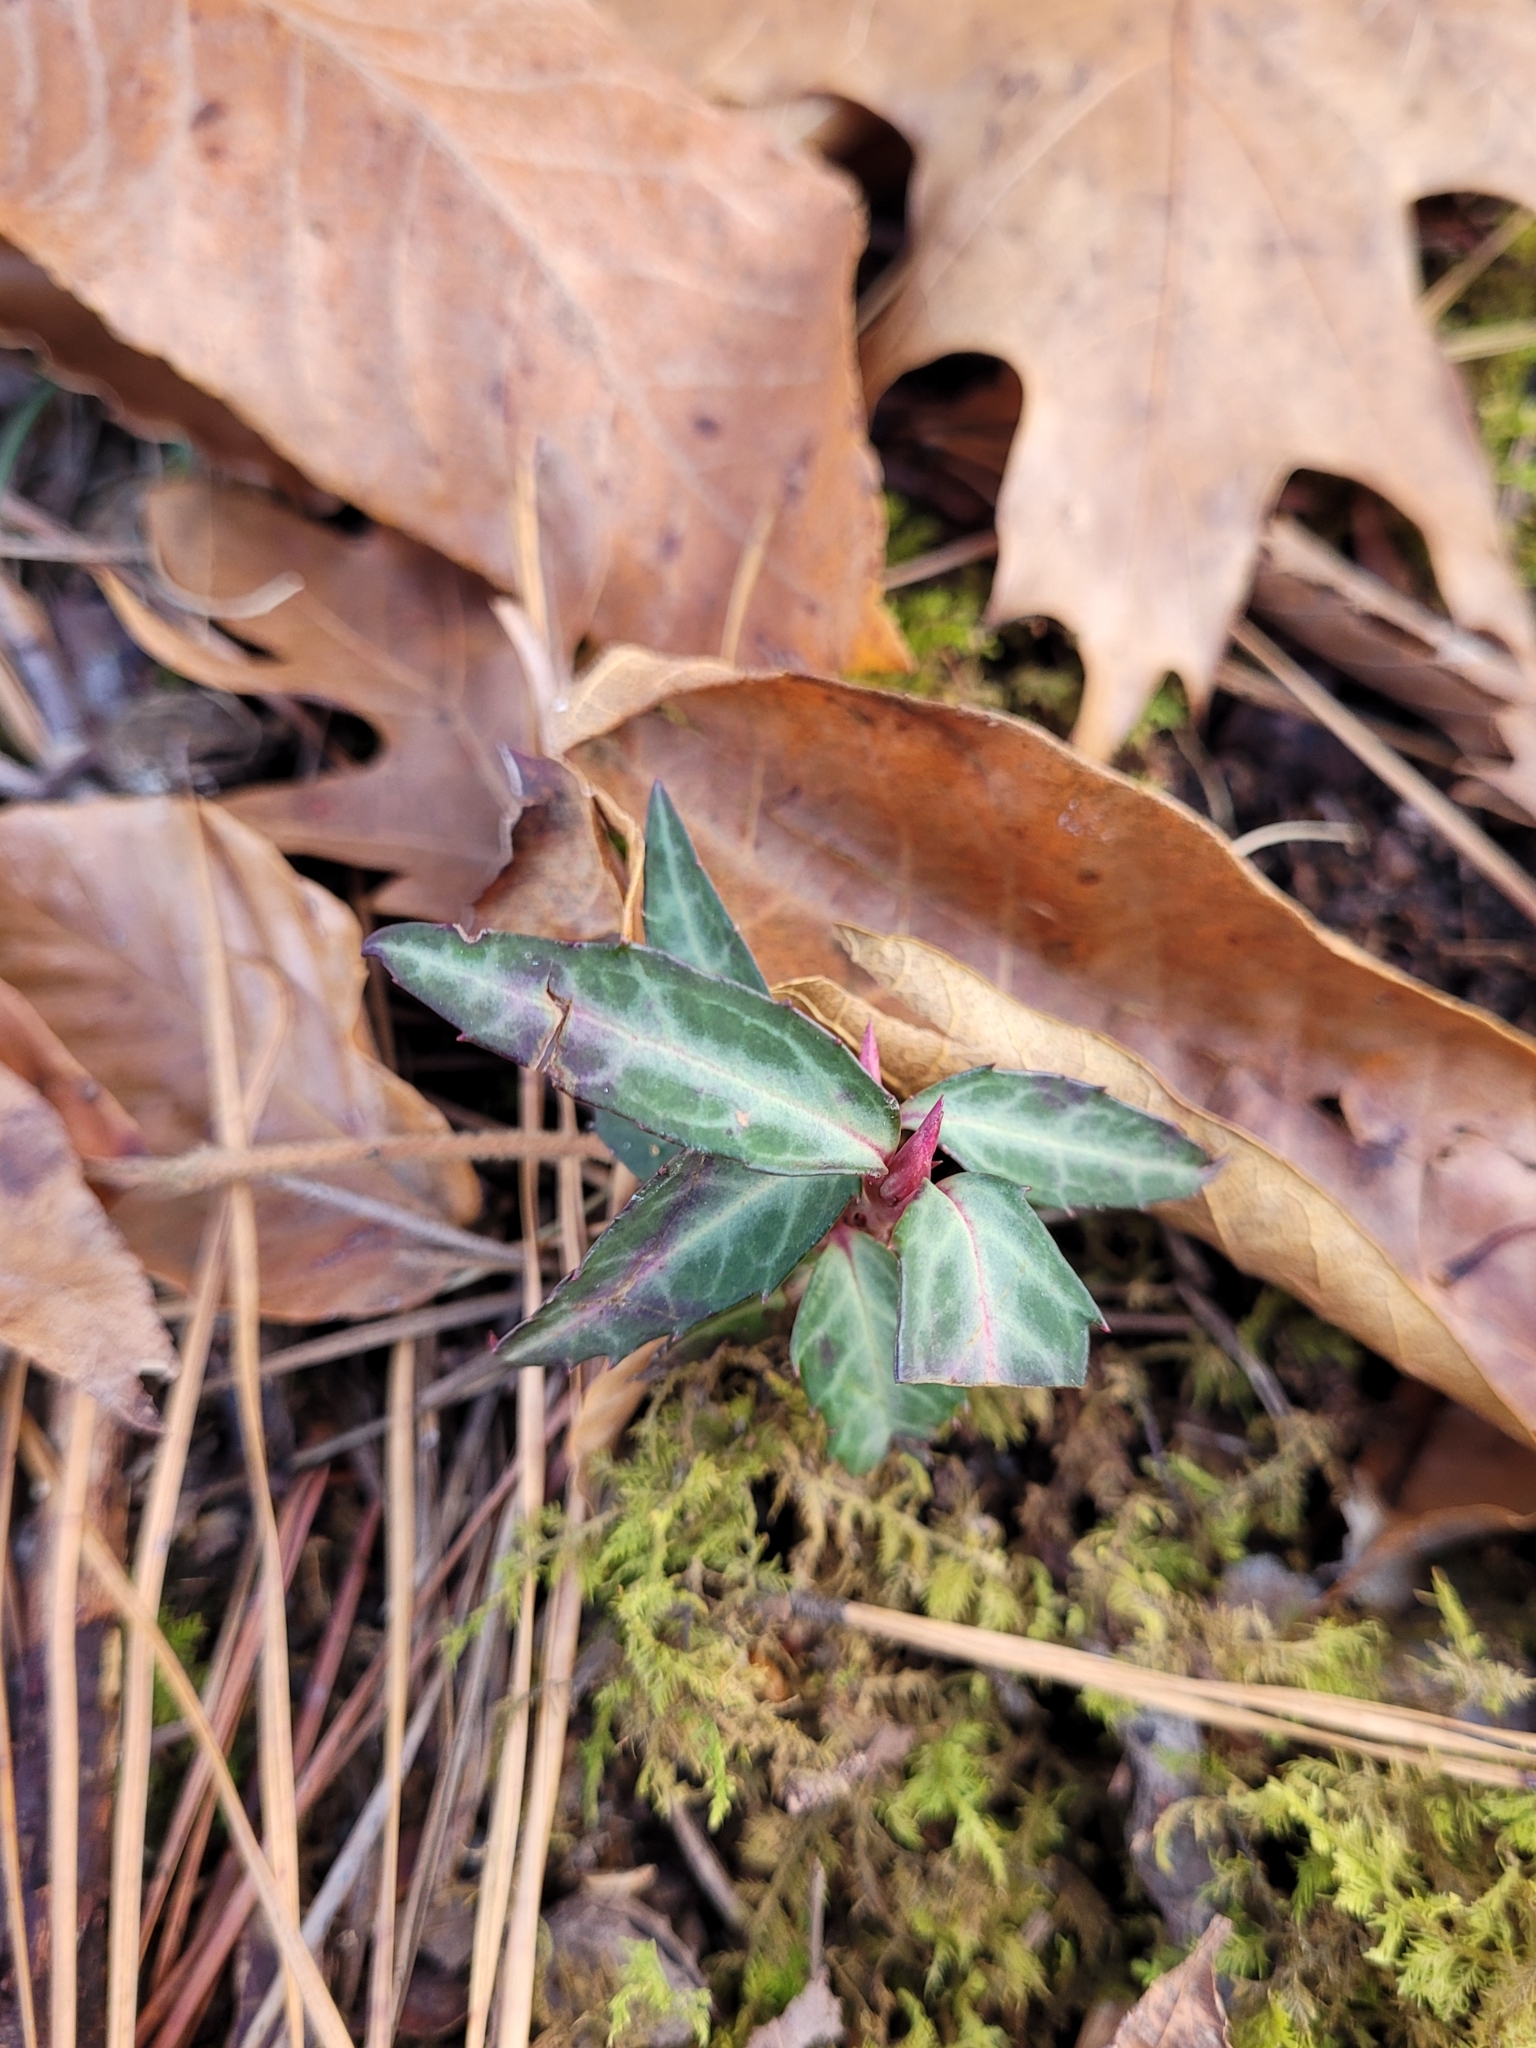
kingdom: Plantae
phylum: Tracheophyta
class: Magnoliopsida
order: Ericales
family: Ericaceae
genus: Chimaphila
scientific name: Chimaphila maculata
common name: Spotted pipsissewa
